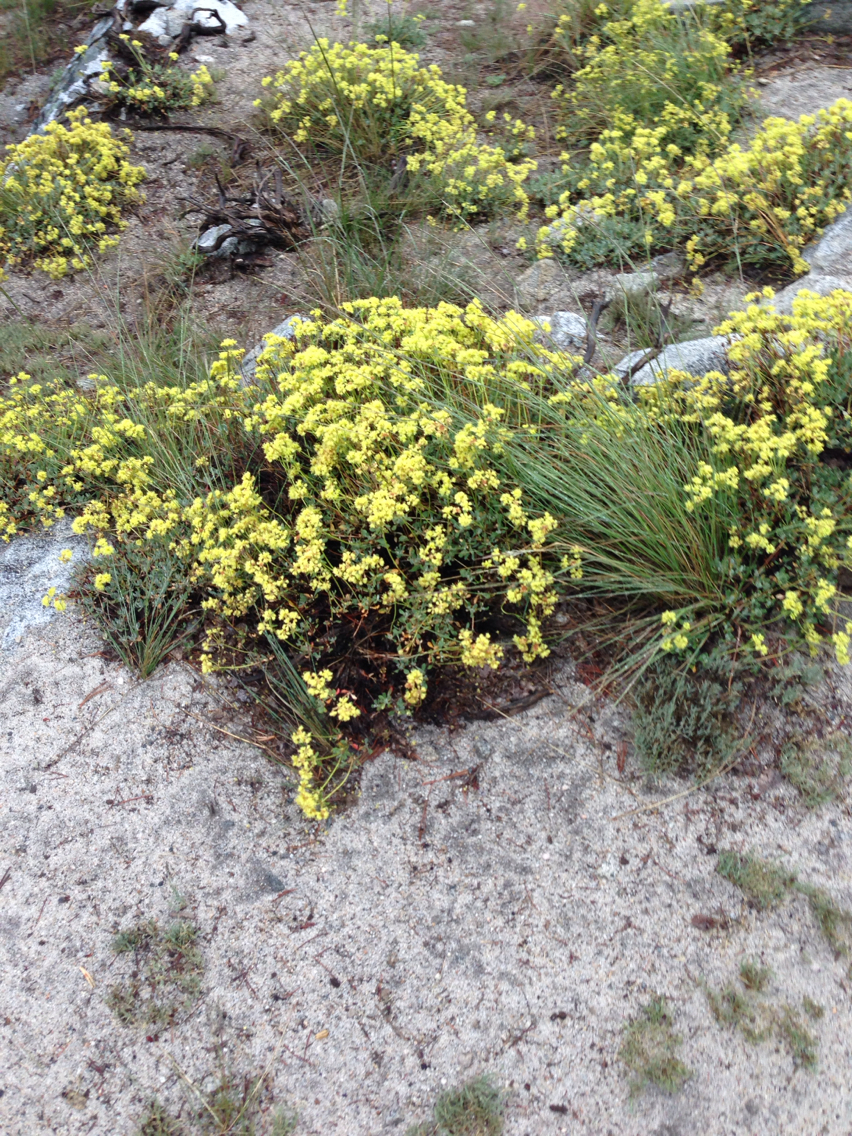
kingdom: Plantae
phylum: Tracheophyta
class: Magnoliopsida
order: Caryophyllales
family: Polygonaceae
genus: Eriogonum
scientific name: Eriogonum umbellatum
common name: Sulfur-buckwheat
